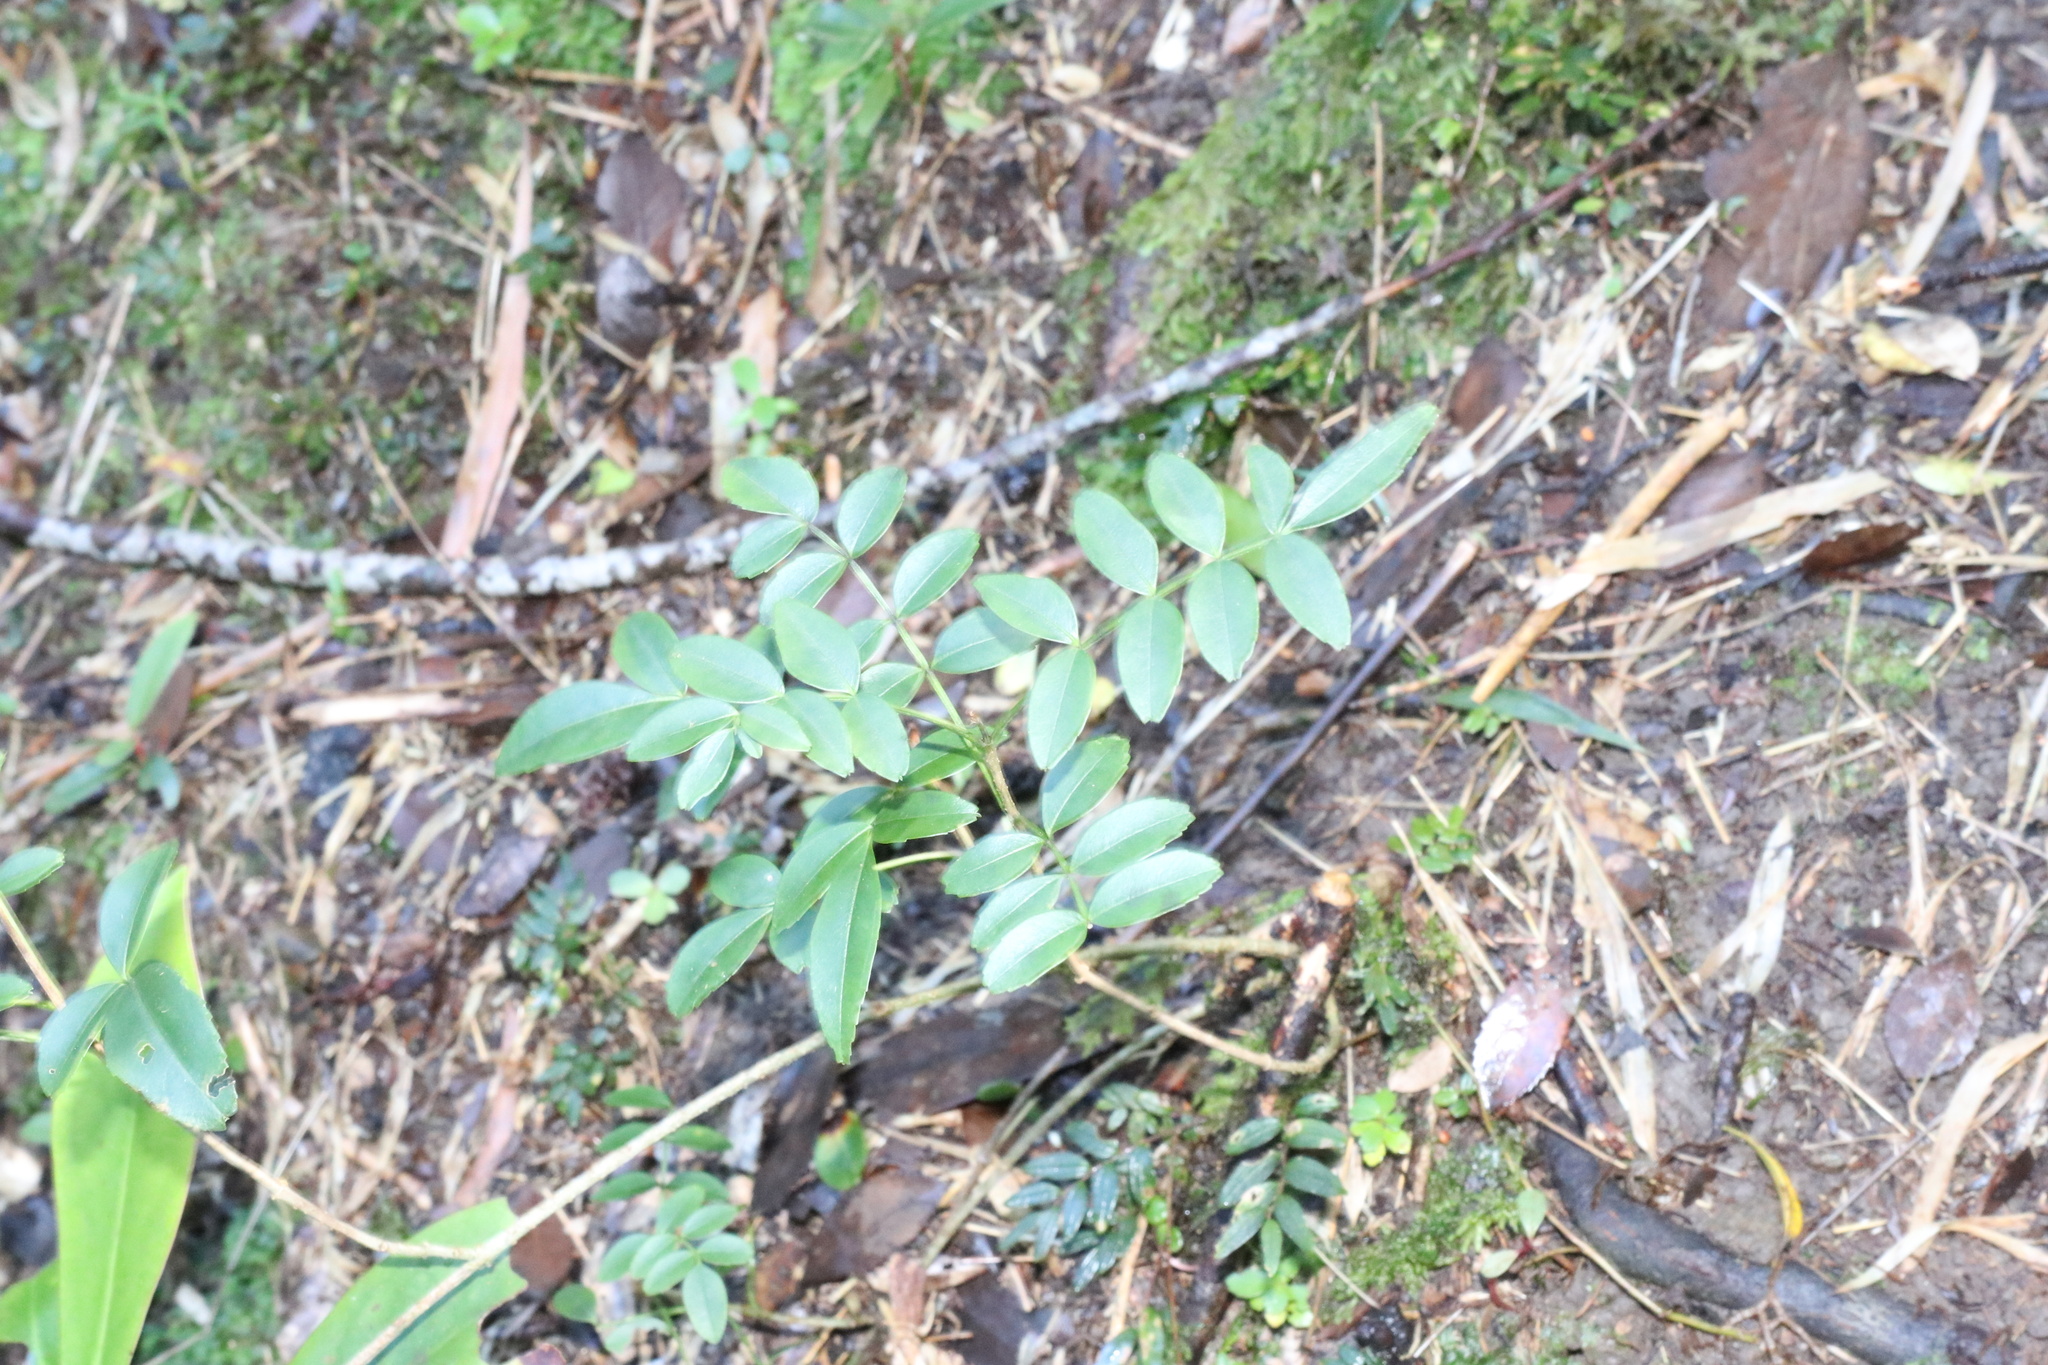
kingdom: Plantae
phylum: Tracheophyta
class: Magnoliopsida
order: Lamiales
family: Bignoniaceae
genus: Campsidium
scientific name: Campsidium valdivianum
